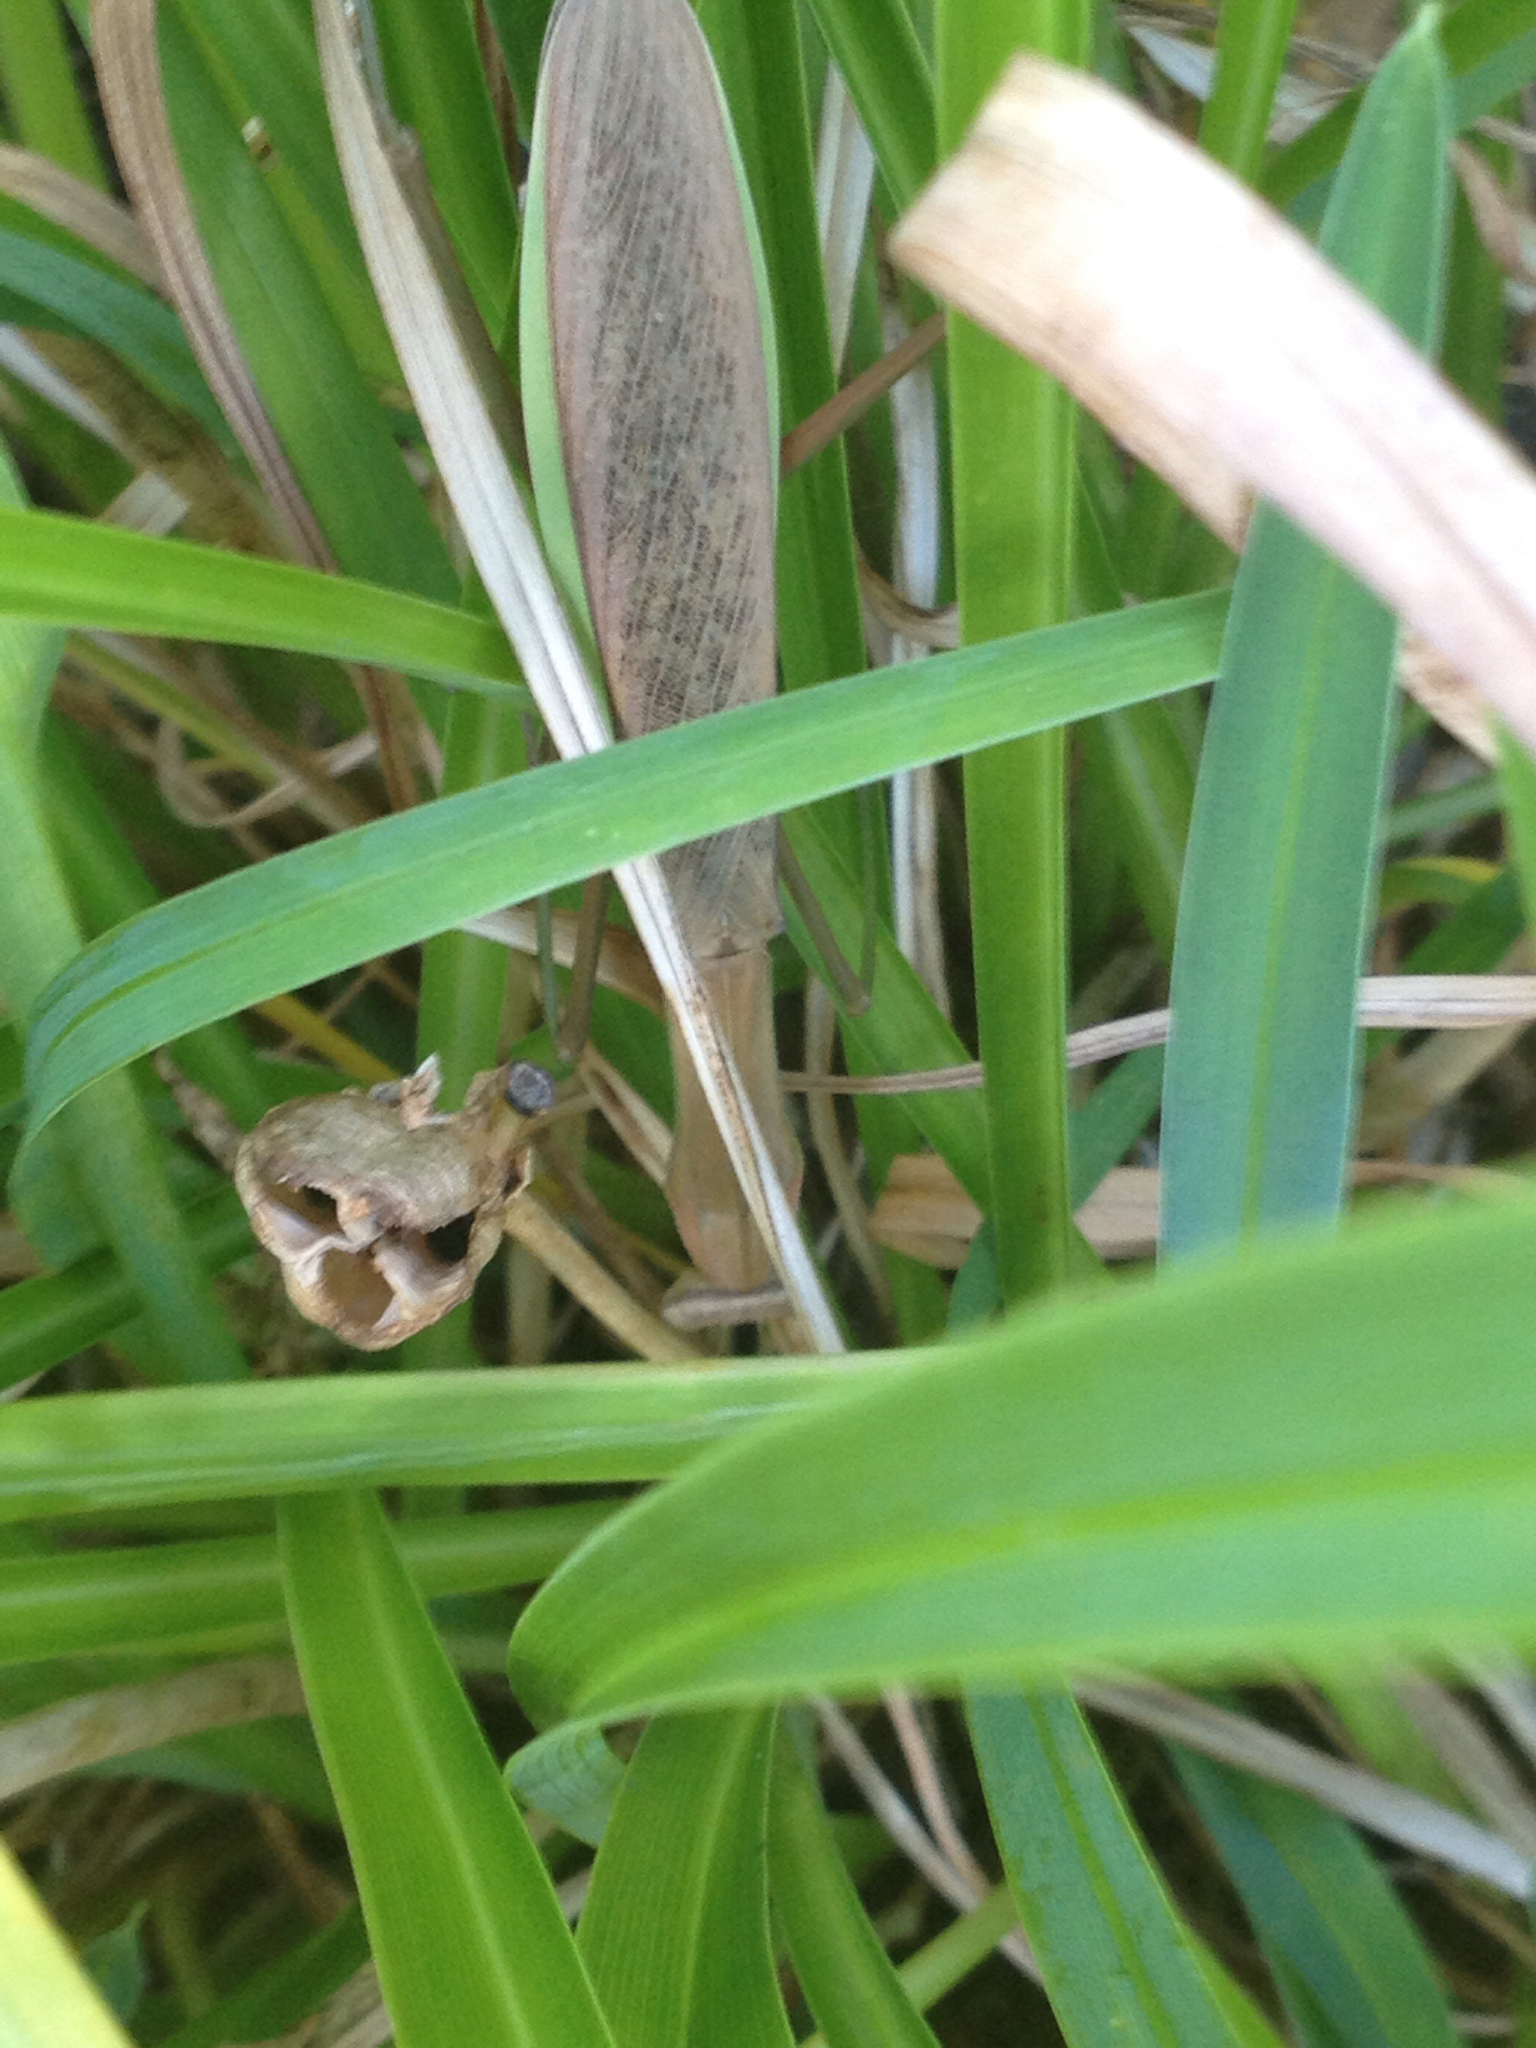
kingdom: Animalia
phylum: Arthropoda
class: Insecta
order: Mantodea
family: Mantidae
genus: Tenodera
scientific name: Tenodera sinensis
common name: Chinese mantis
